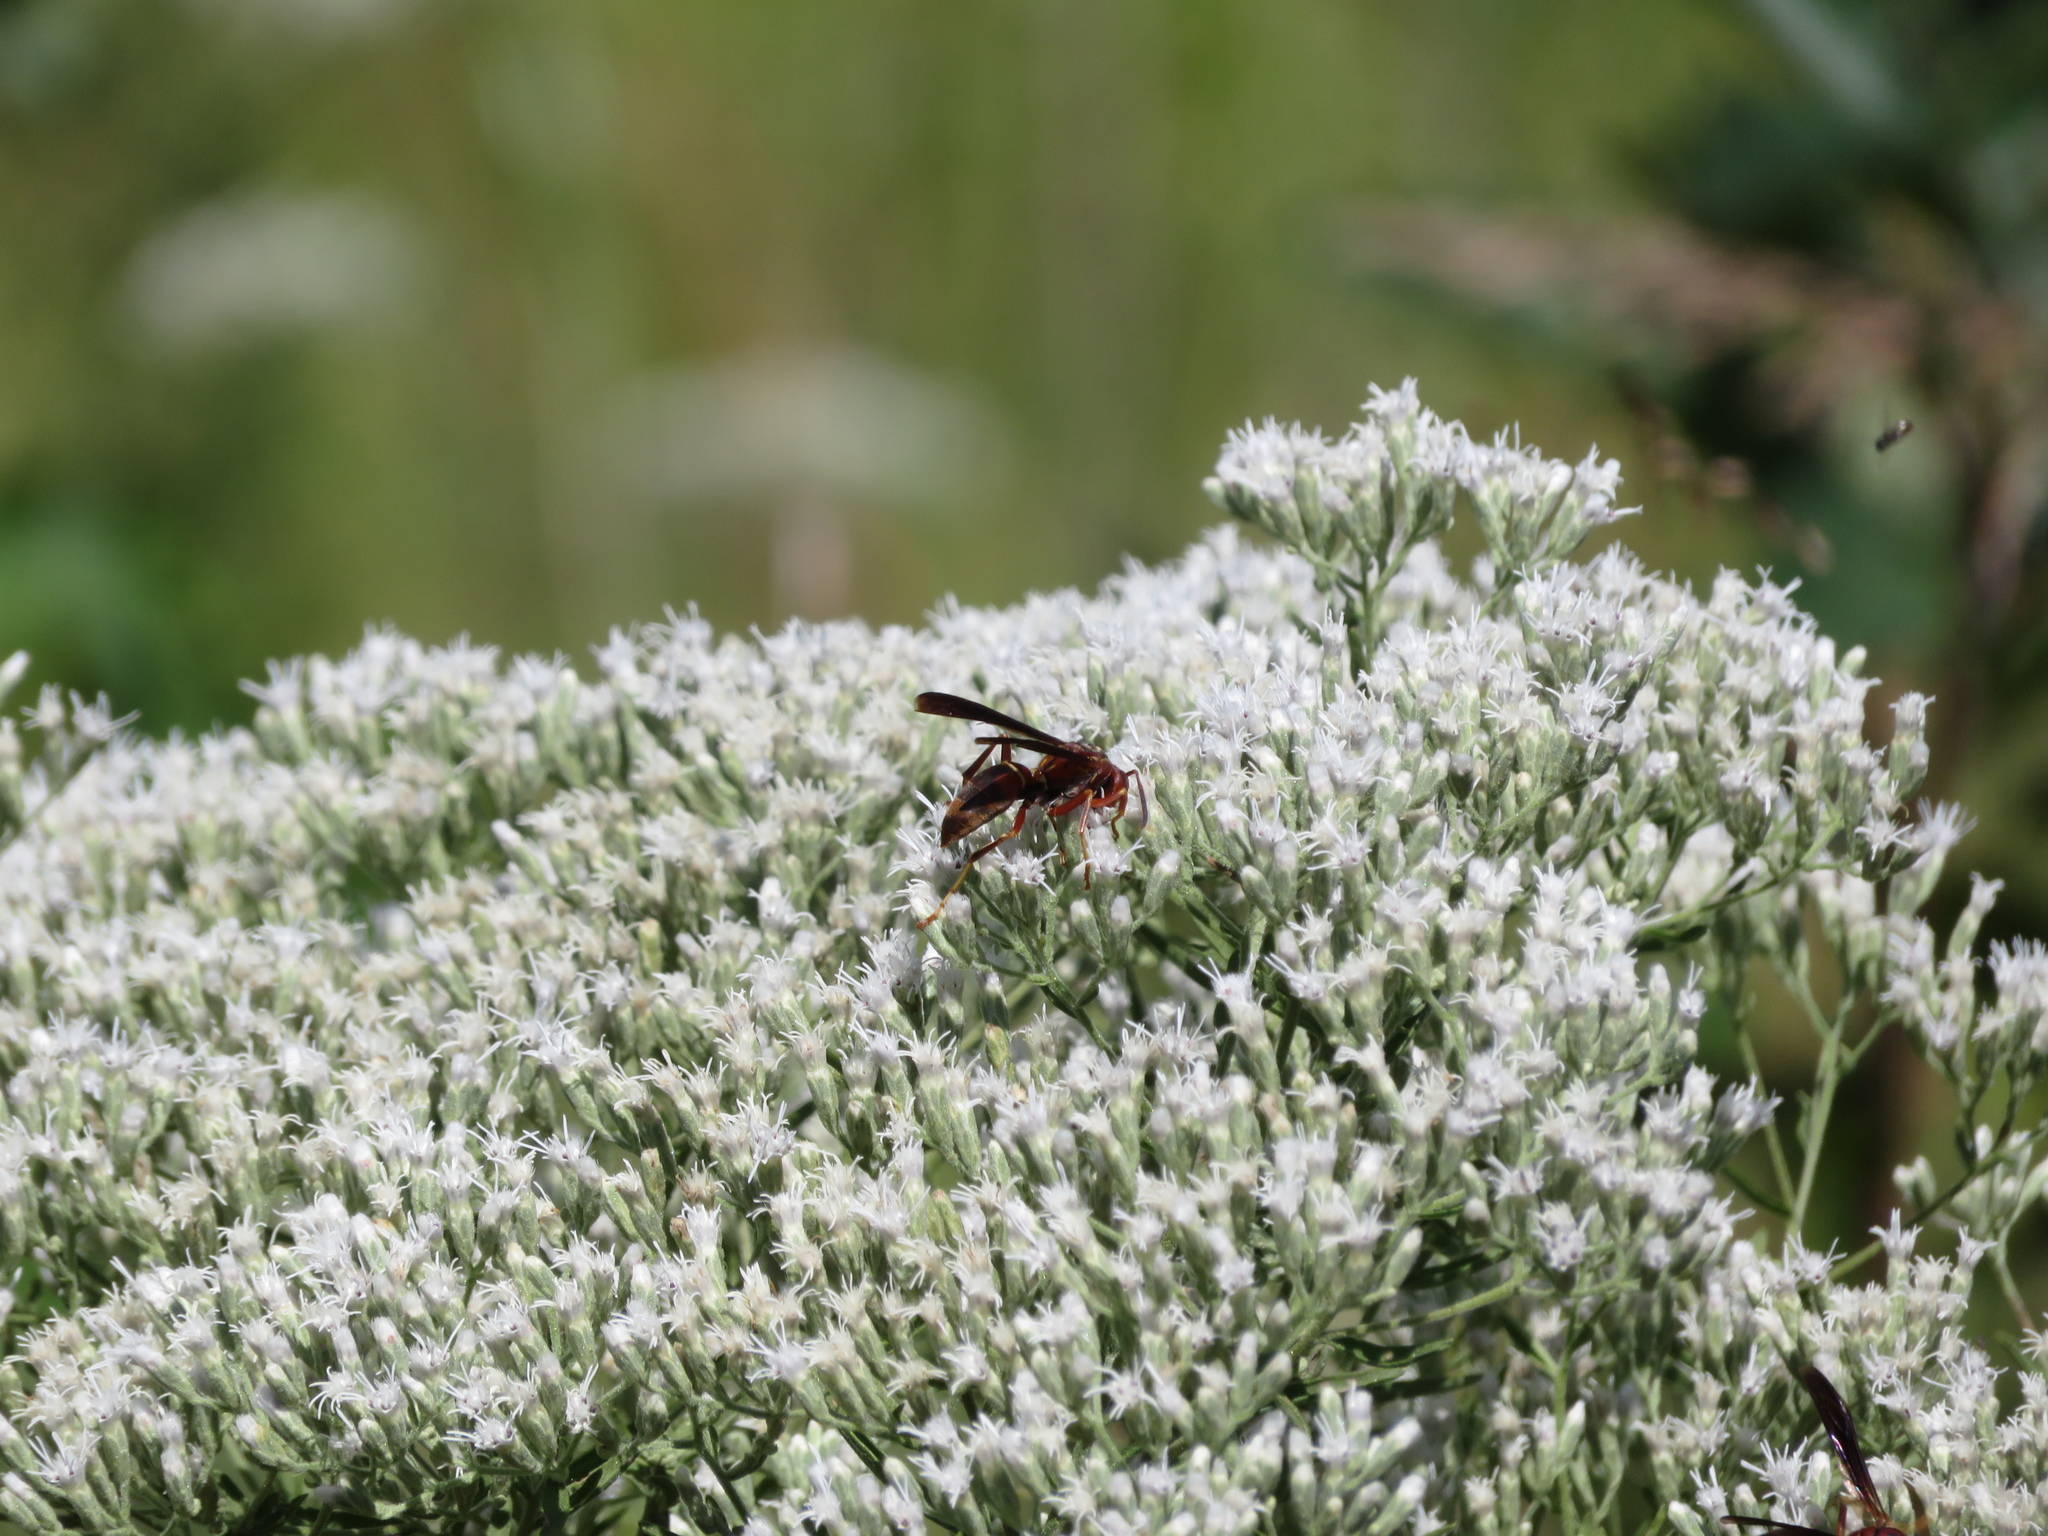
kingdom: Animalia
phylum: Arthropoda
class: Insecta
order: Hymenoptera
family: Eumenidae
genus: Polistes
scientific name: Polistes fuscatus
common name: Dark paper wasp
